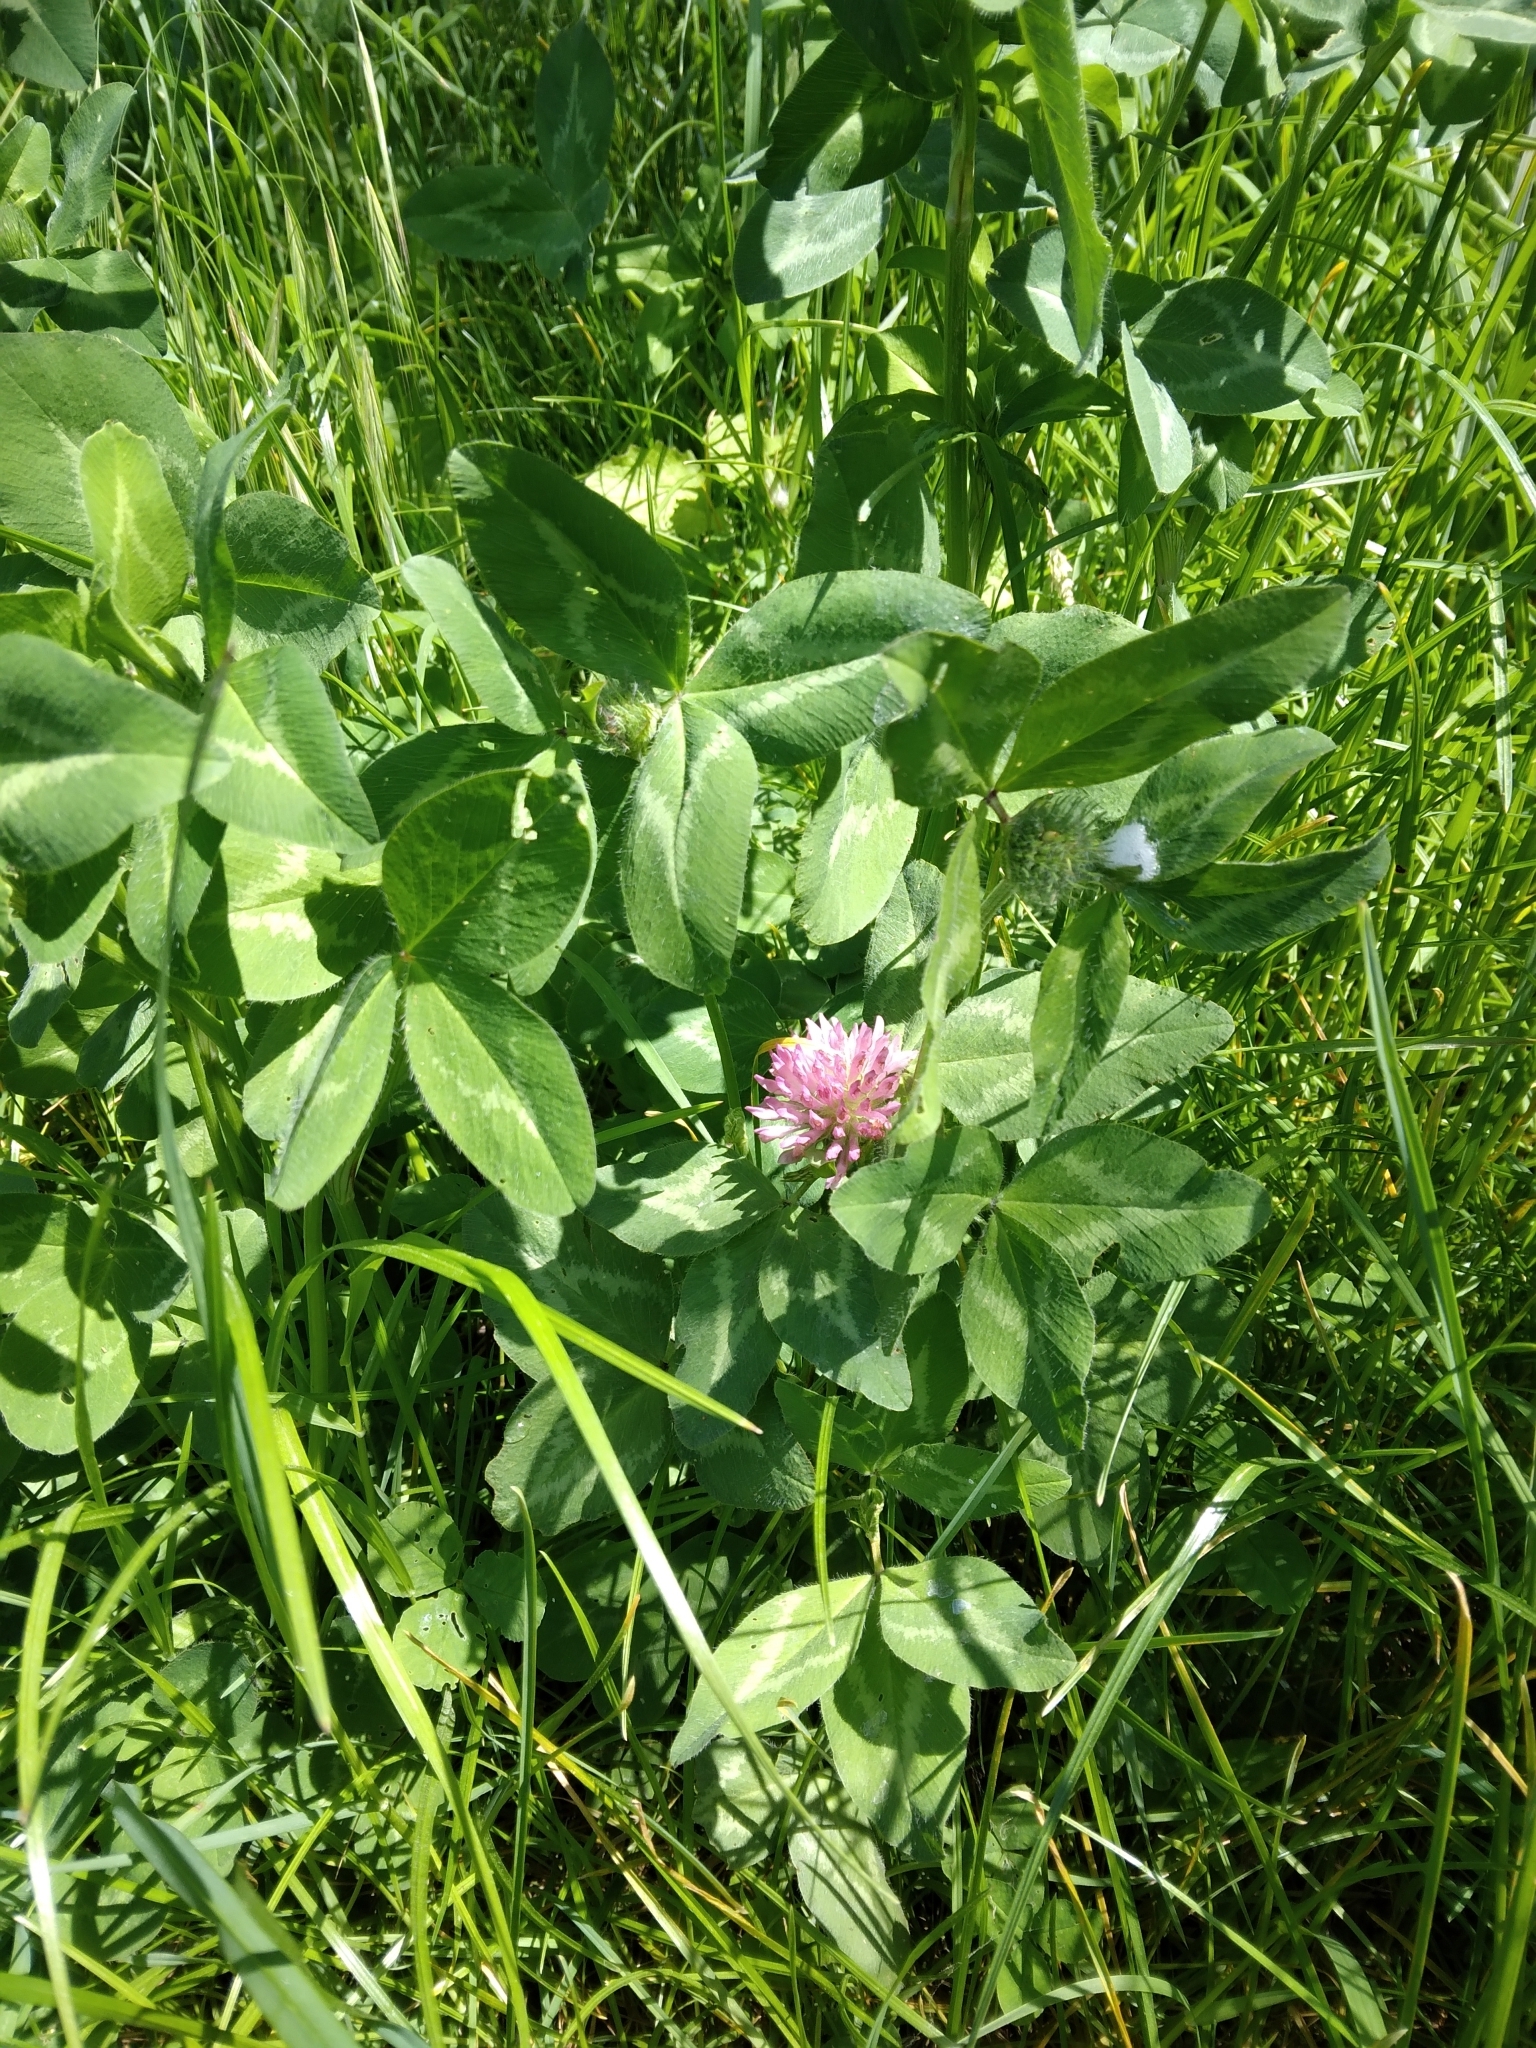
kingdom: Plantae
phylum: Tracheophyta
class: Magnoliopsida
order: Fabales
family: Fabaceae
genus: Trifolium
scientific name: Trifolium pratense
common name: Red clover
